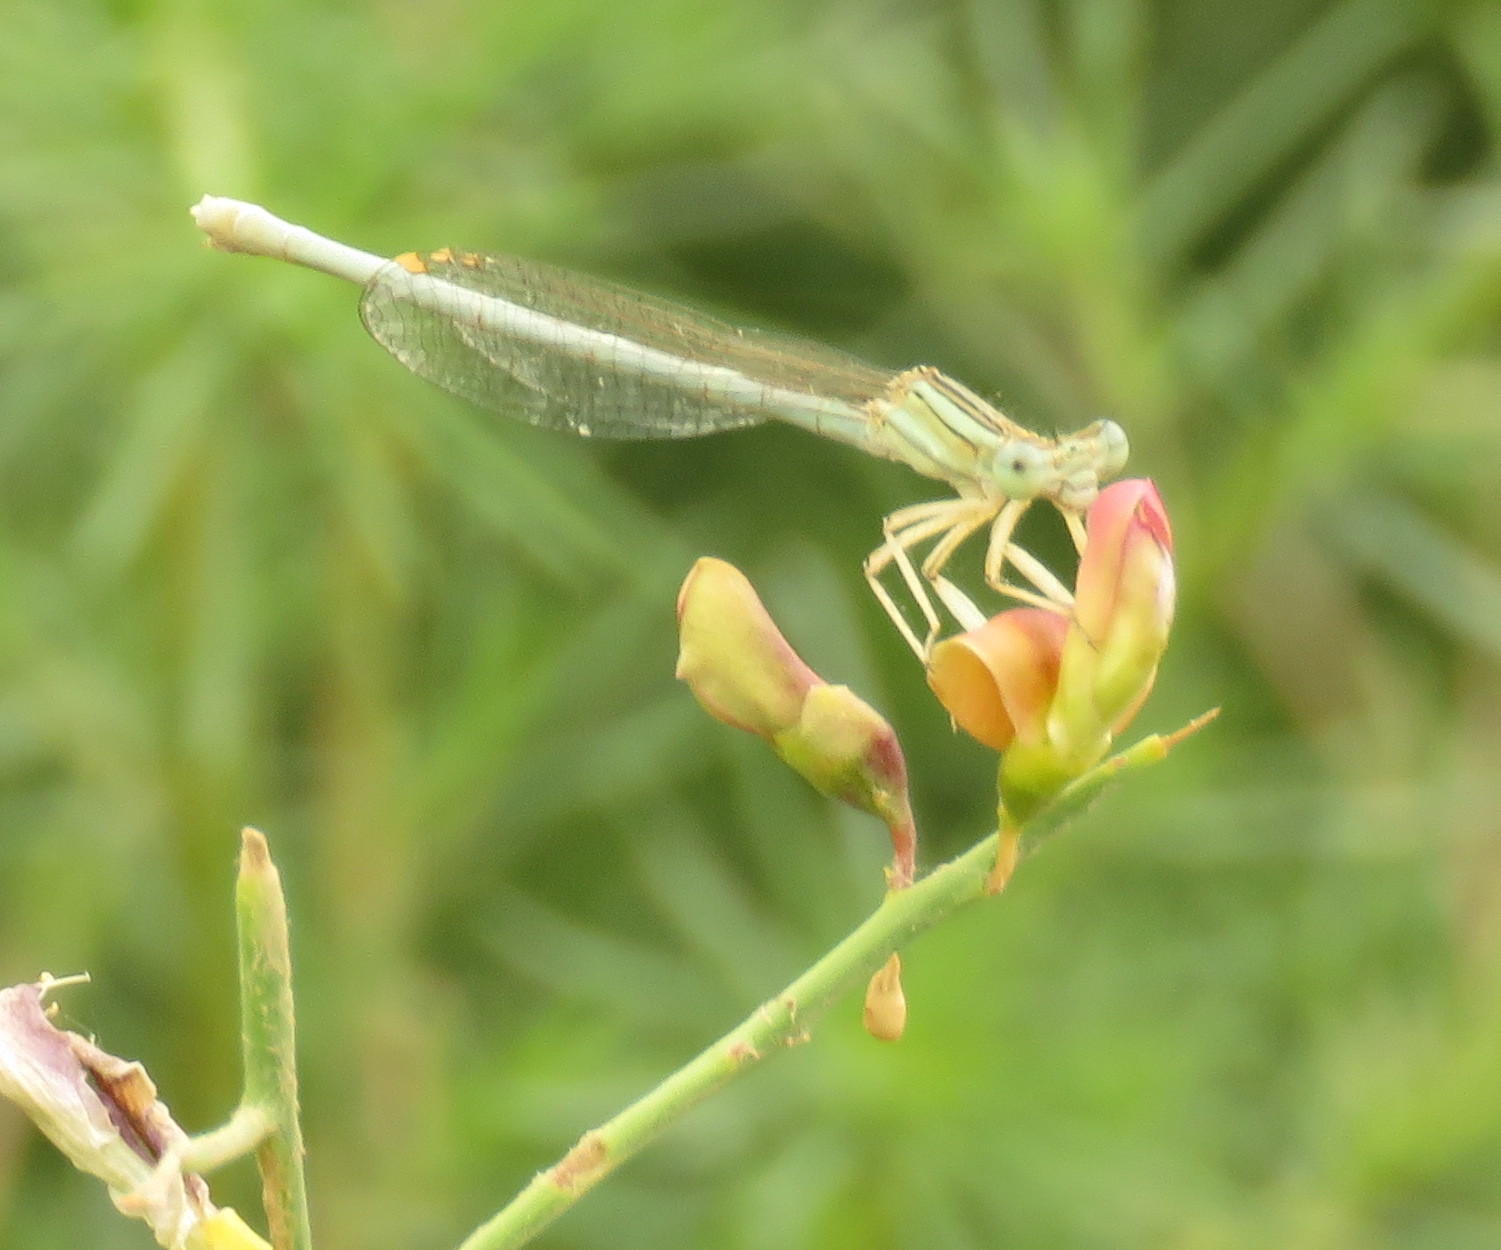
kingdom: Animalia
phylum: Arthropoda
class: Insecta
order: Odonata
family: Platycnemididae
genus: Platycnemis
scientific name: Platycnemis dealbata
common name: Ivory featherleg
